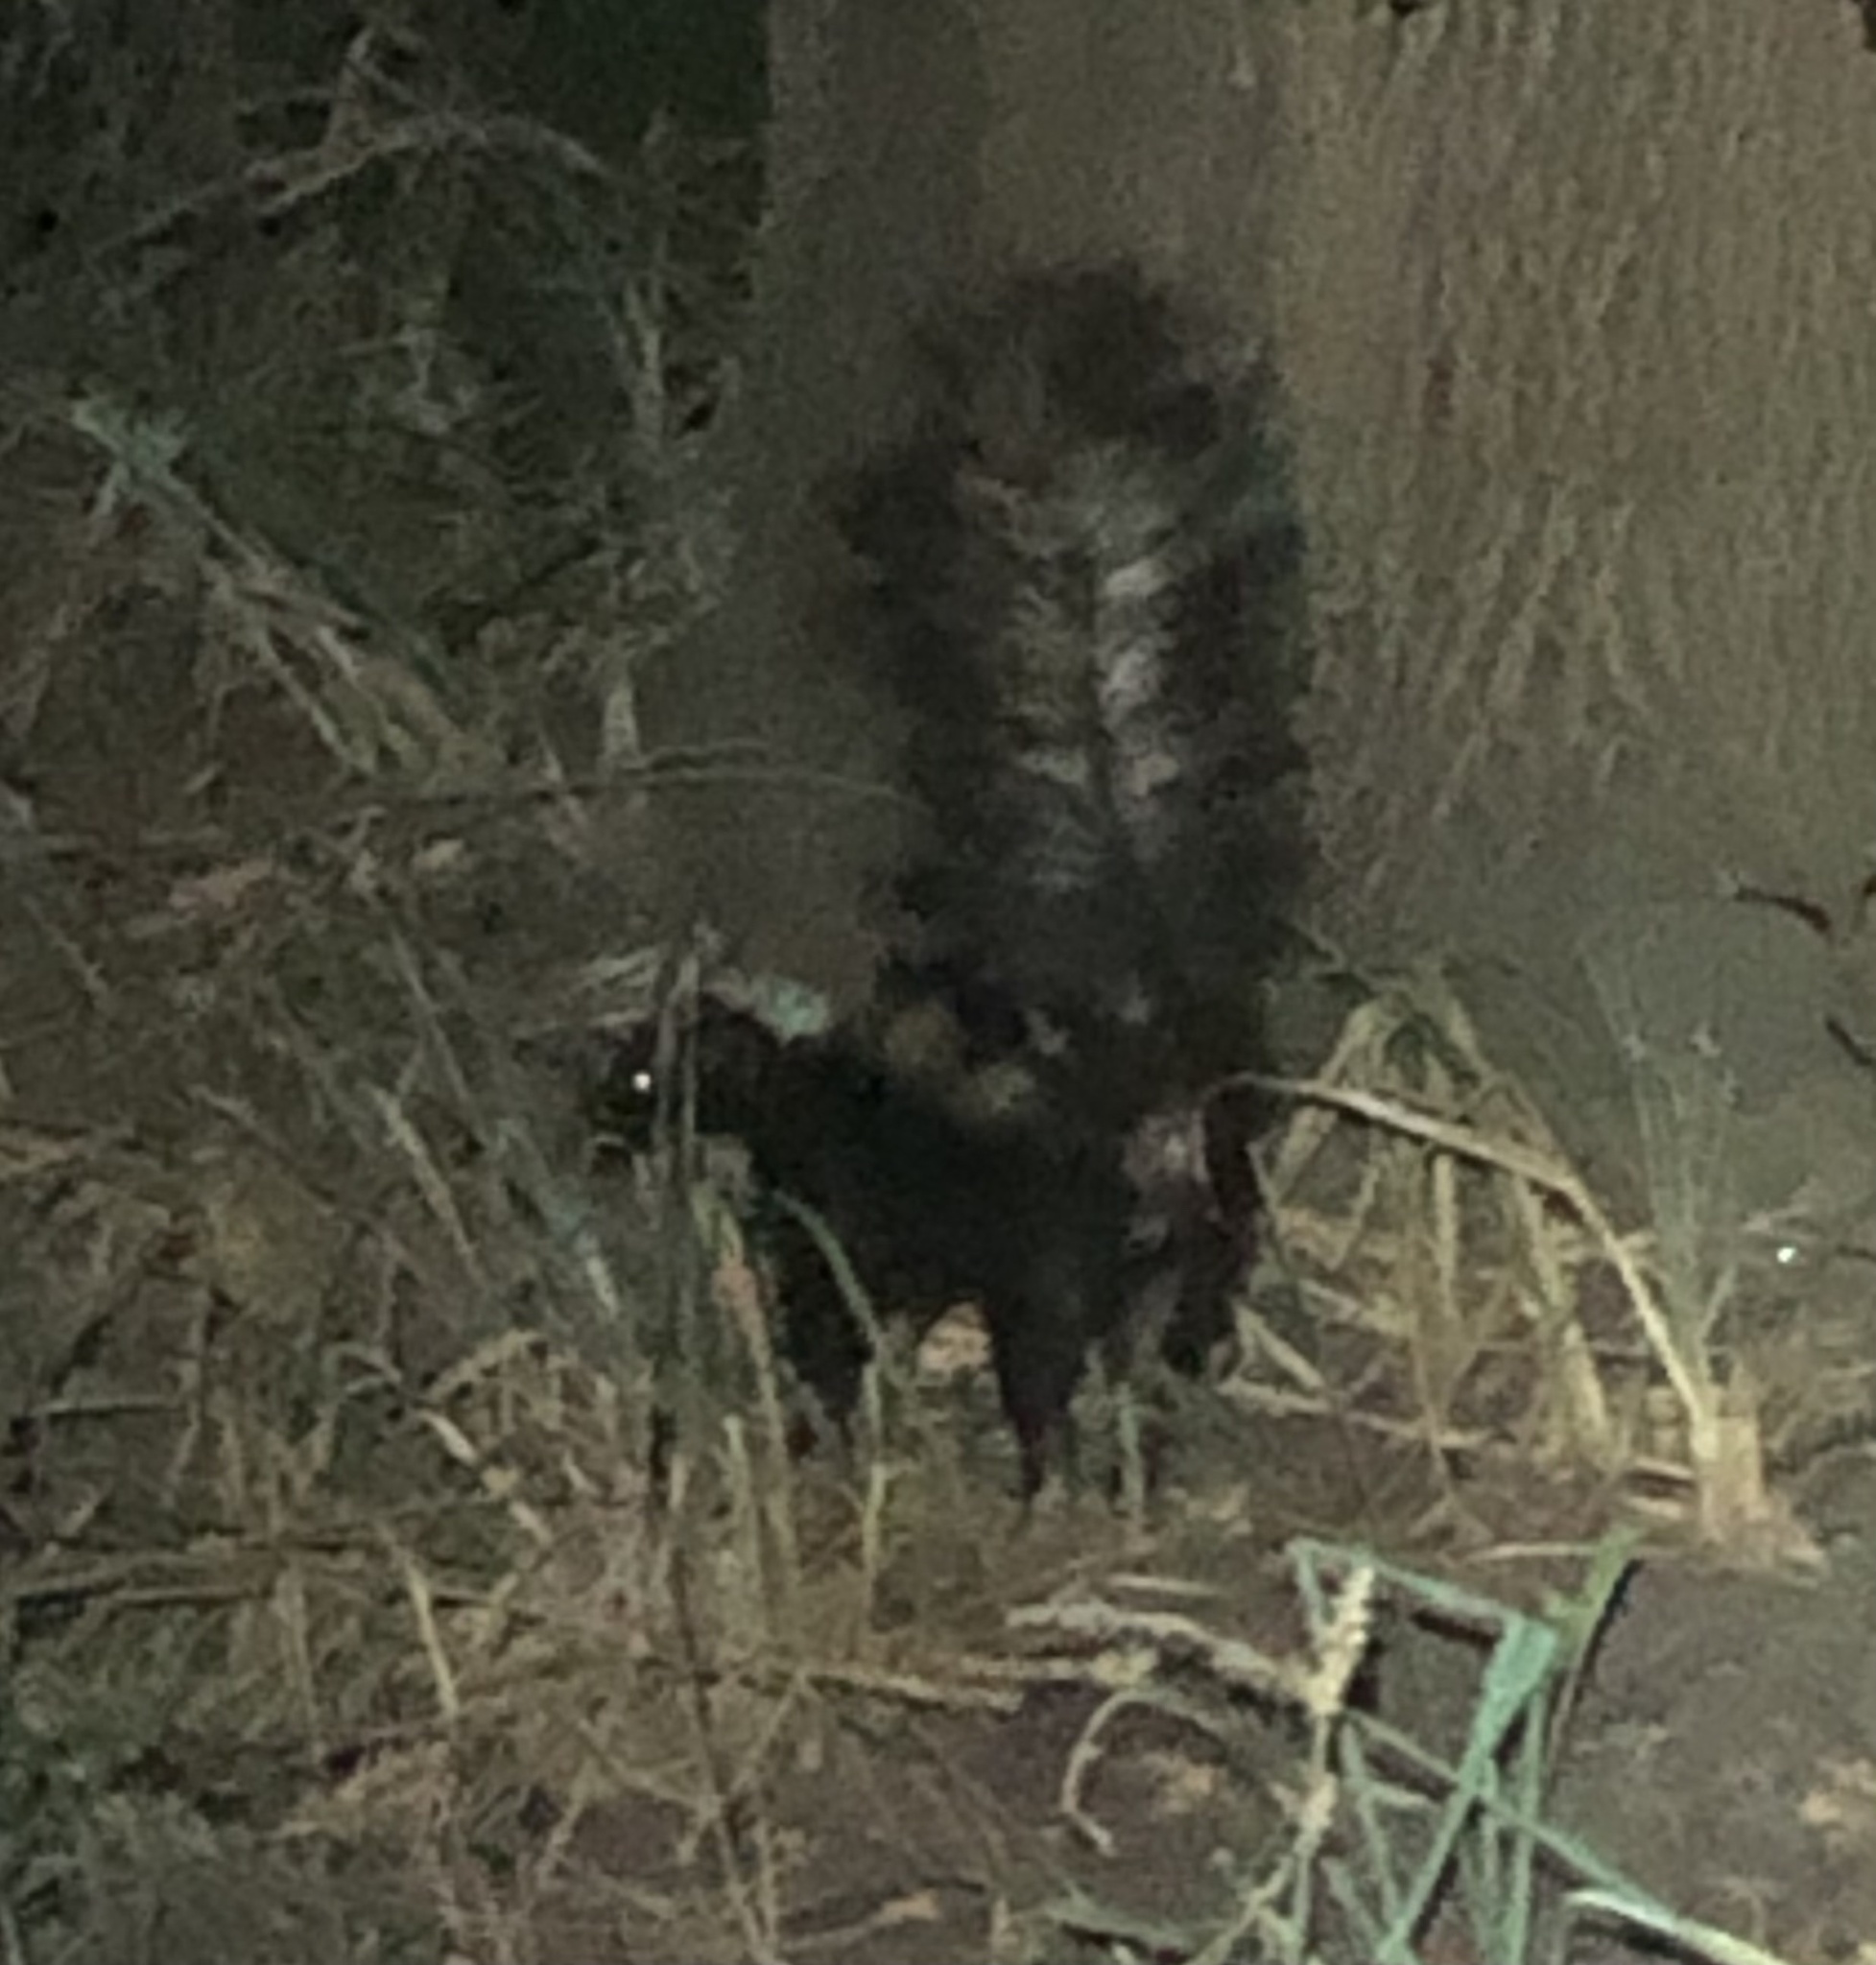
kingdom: Animalia
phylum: Chordata
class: Mammalia
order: Carnivora
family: Mephitidae
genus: Mephitis
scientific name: Mephitis mephitis
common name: Striped skunk
